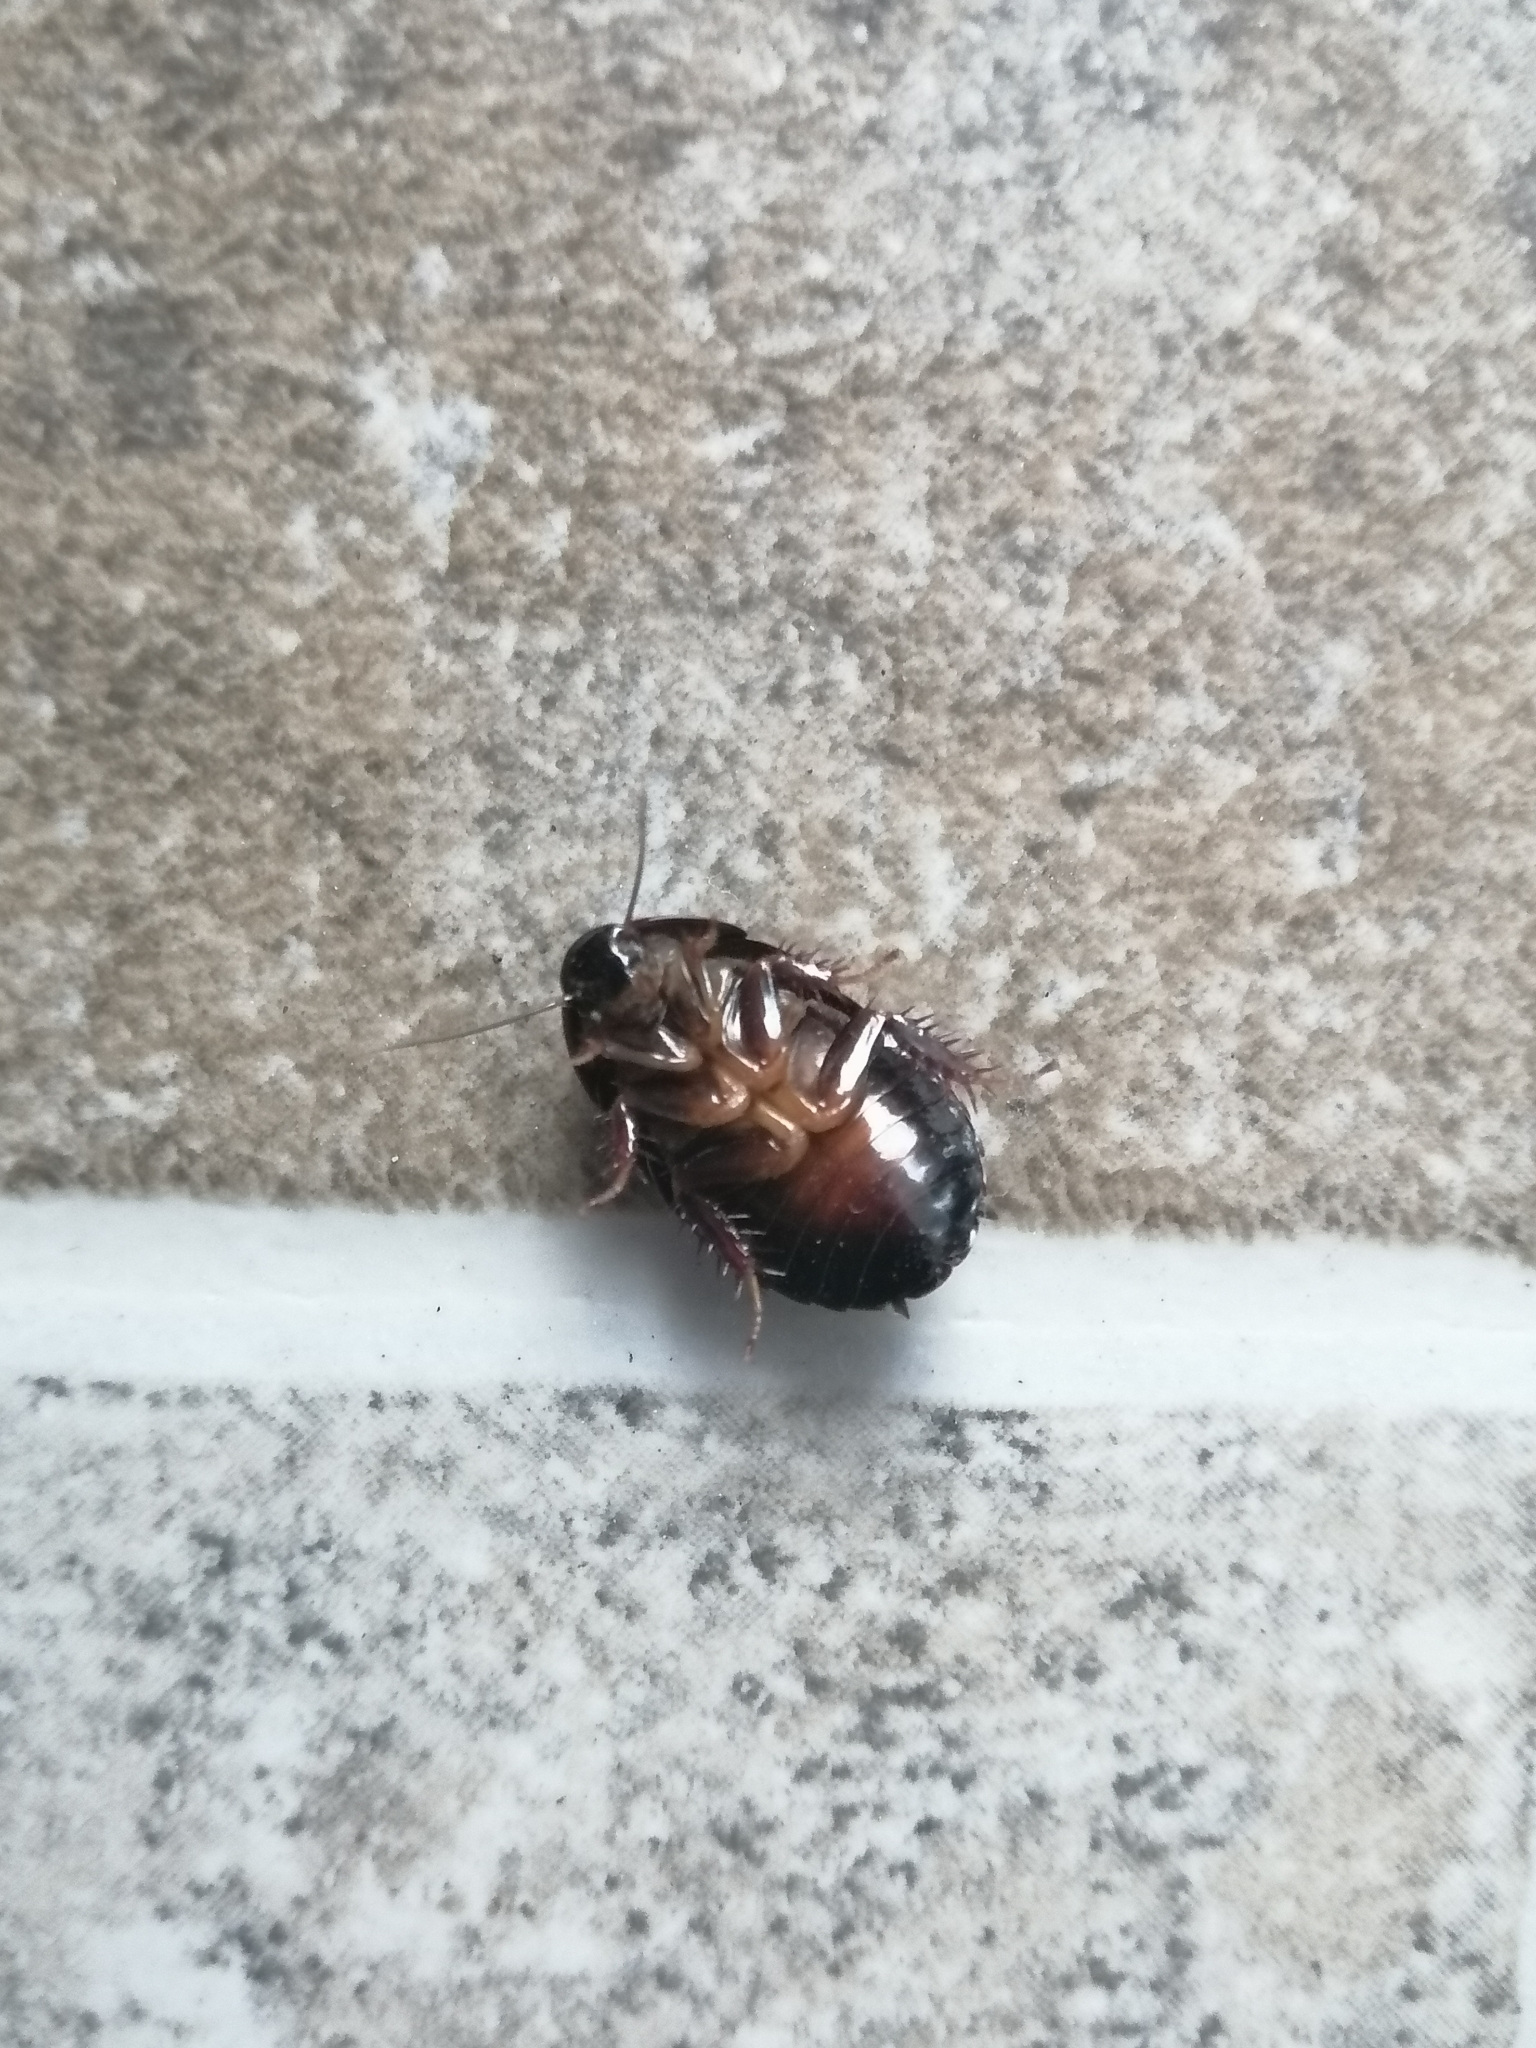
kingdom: Animalia
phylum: Arthropoda
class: Insecta
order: Blattodea
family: Blaberidae
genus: Pycnoscelus
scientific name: Pycnoscelus surinamensis
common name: Surinam cockroach
